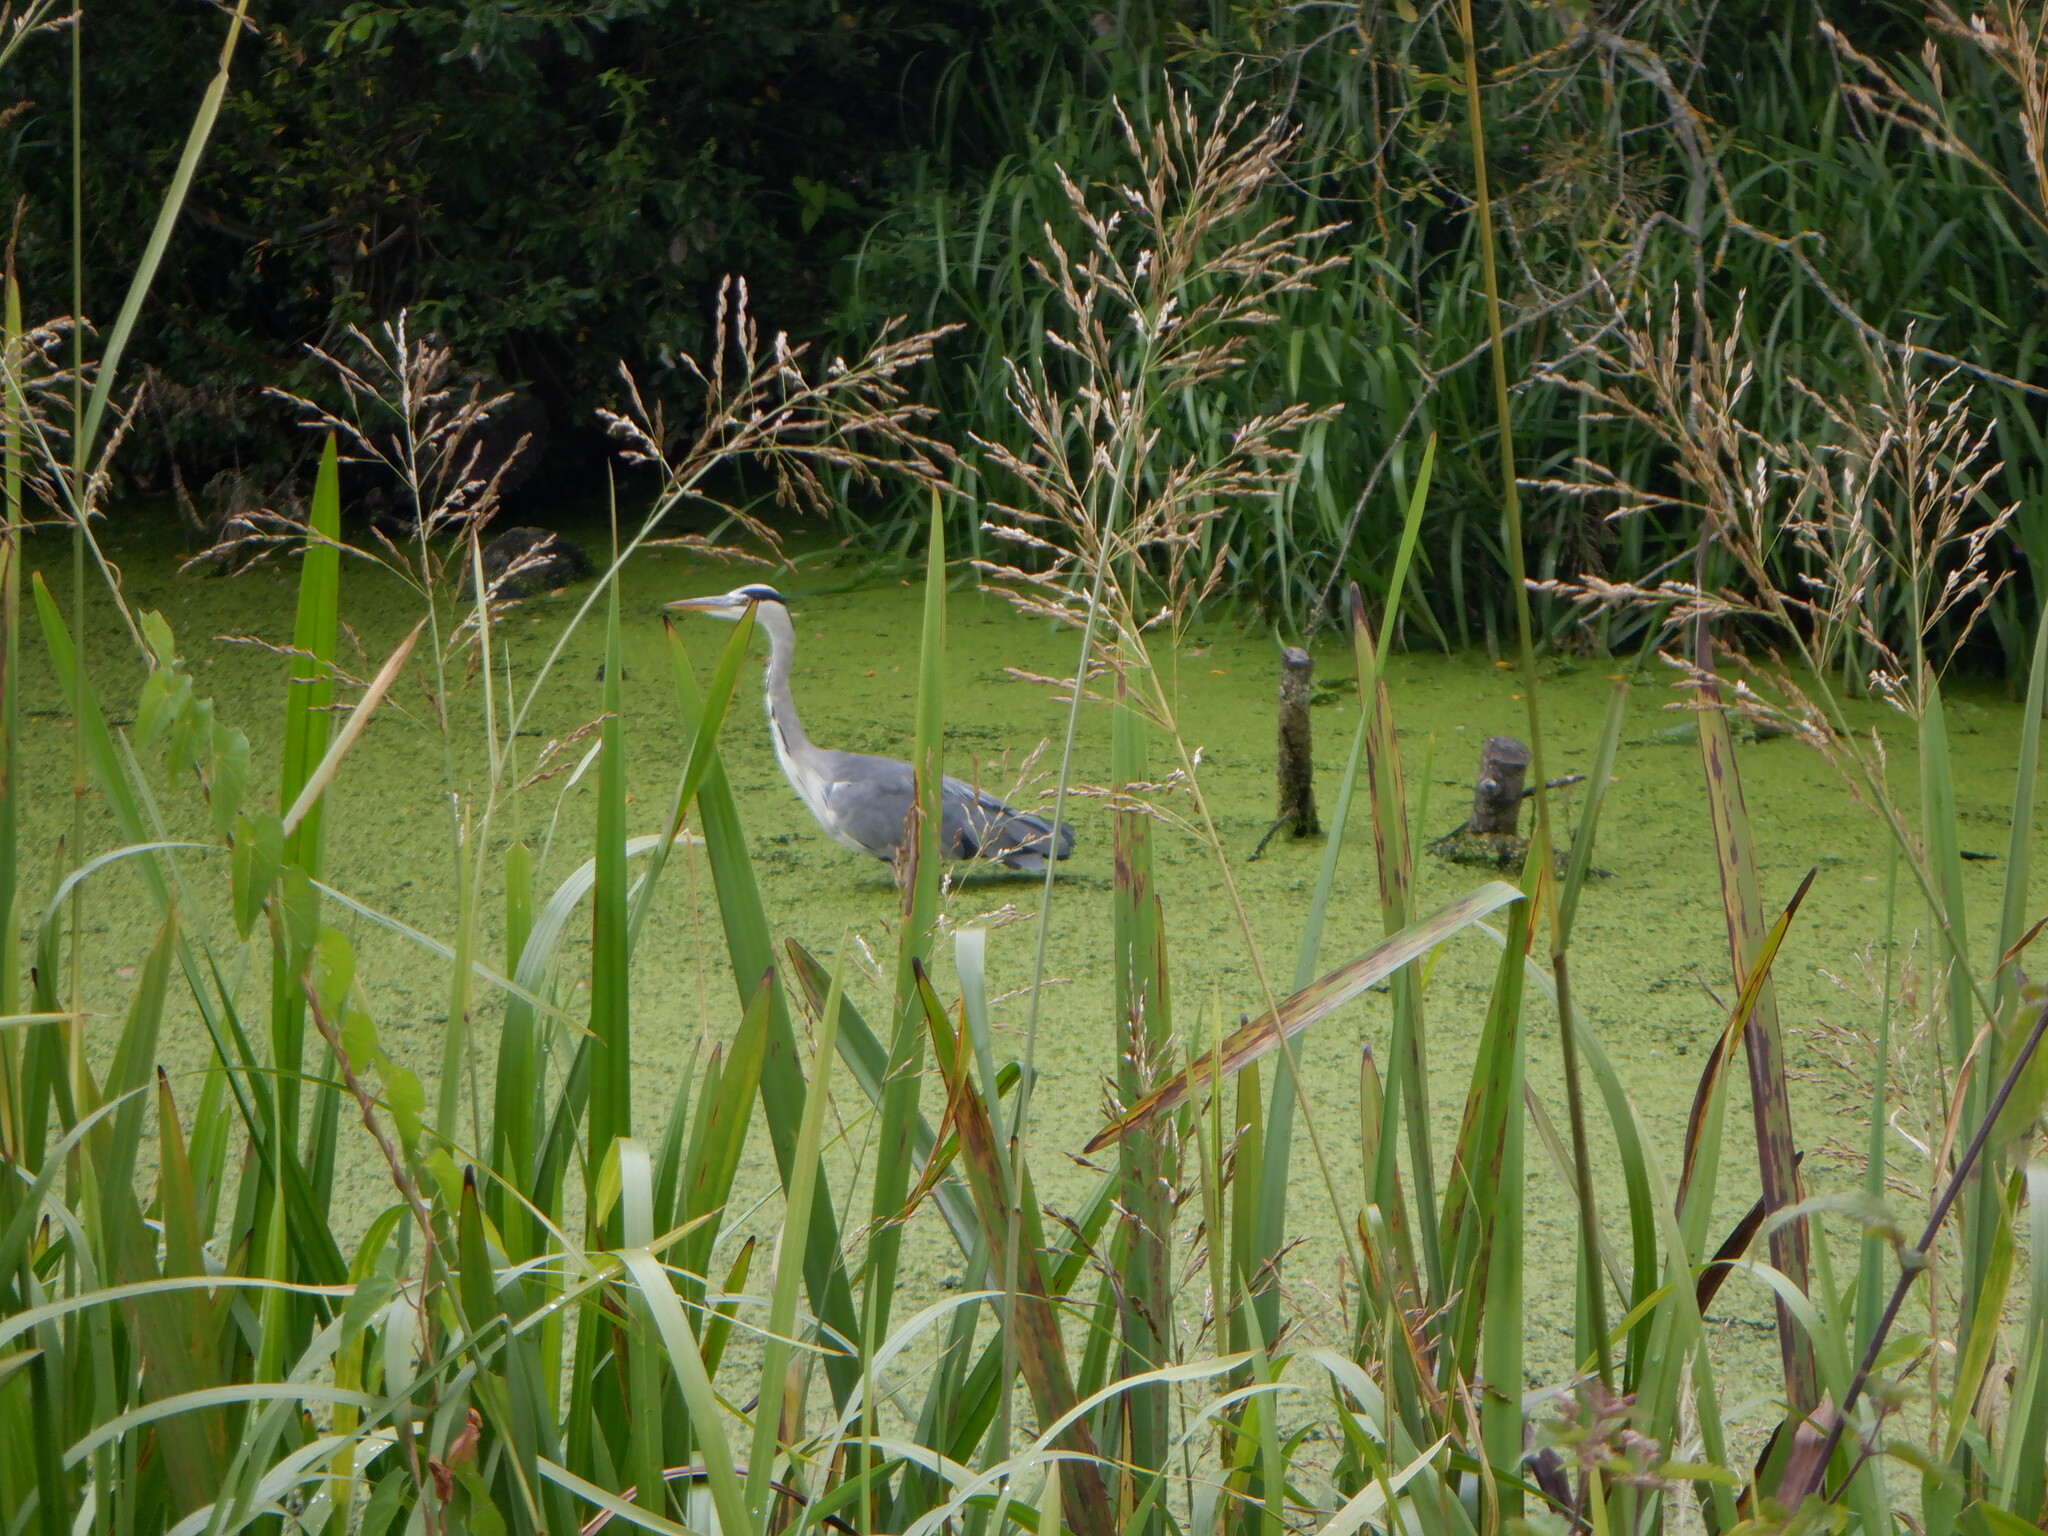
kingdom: Animalia
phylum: Chordata
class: Aves
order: Pelecaniformes
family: Ardeidae
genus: Ardea
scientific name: Ardea cinerea
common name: Grey heron
